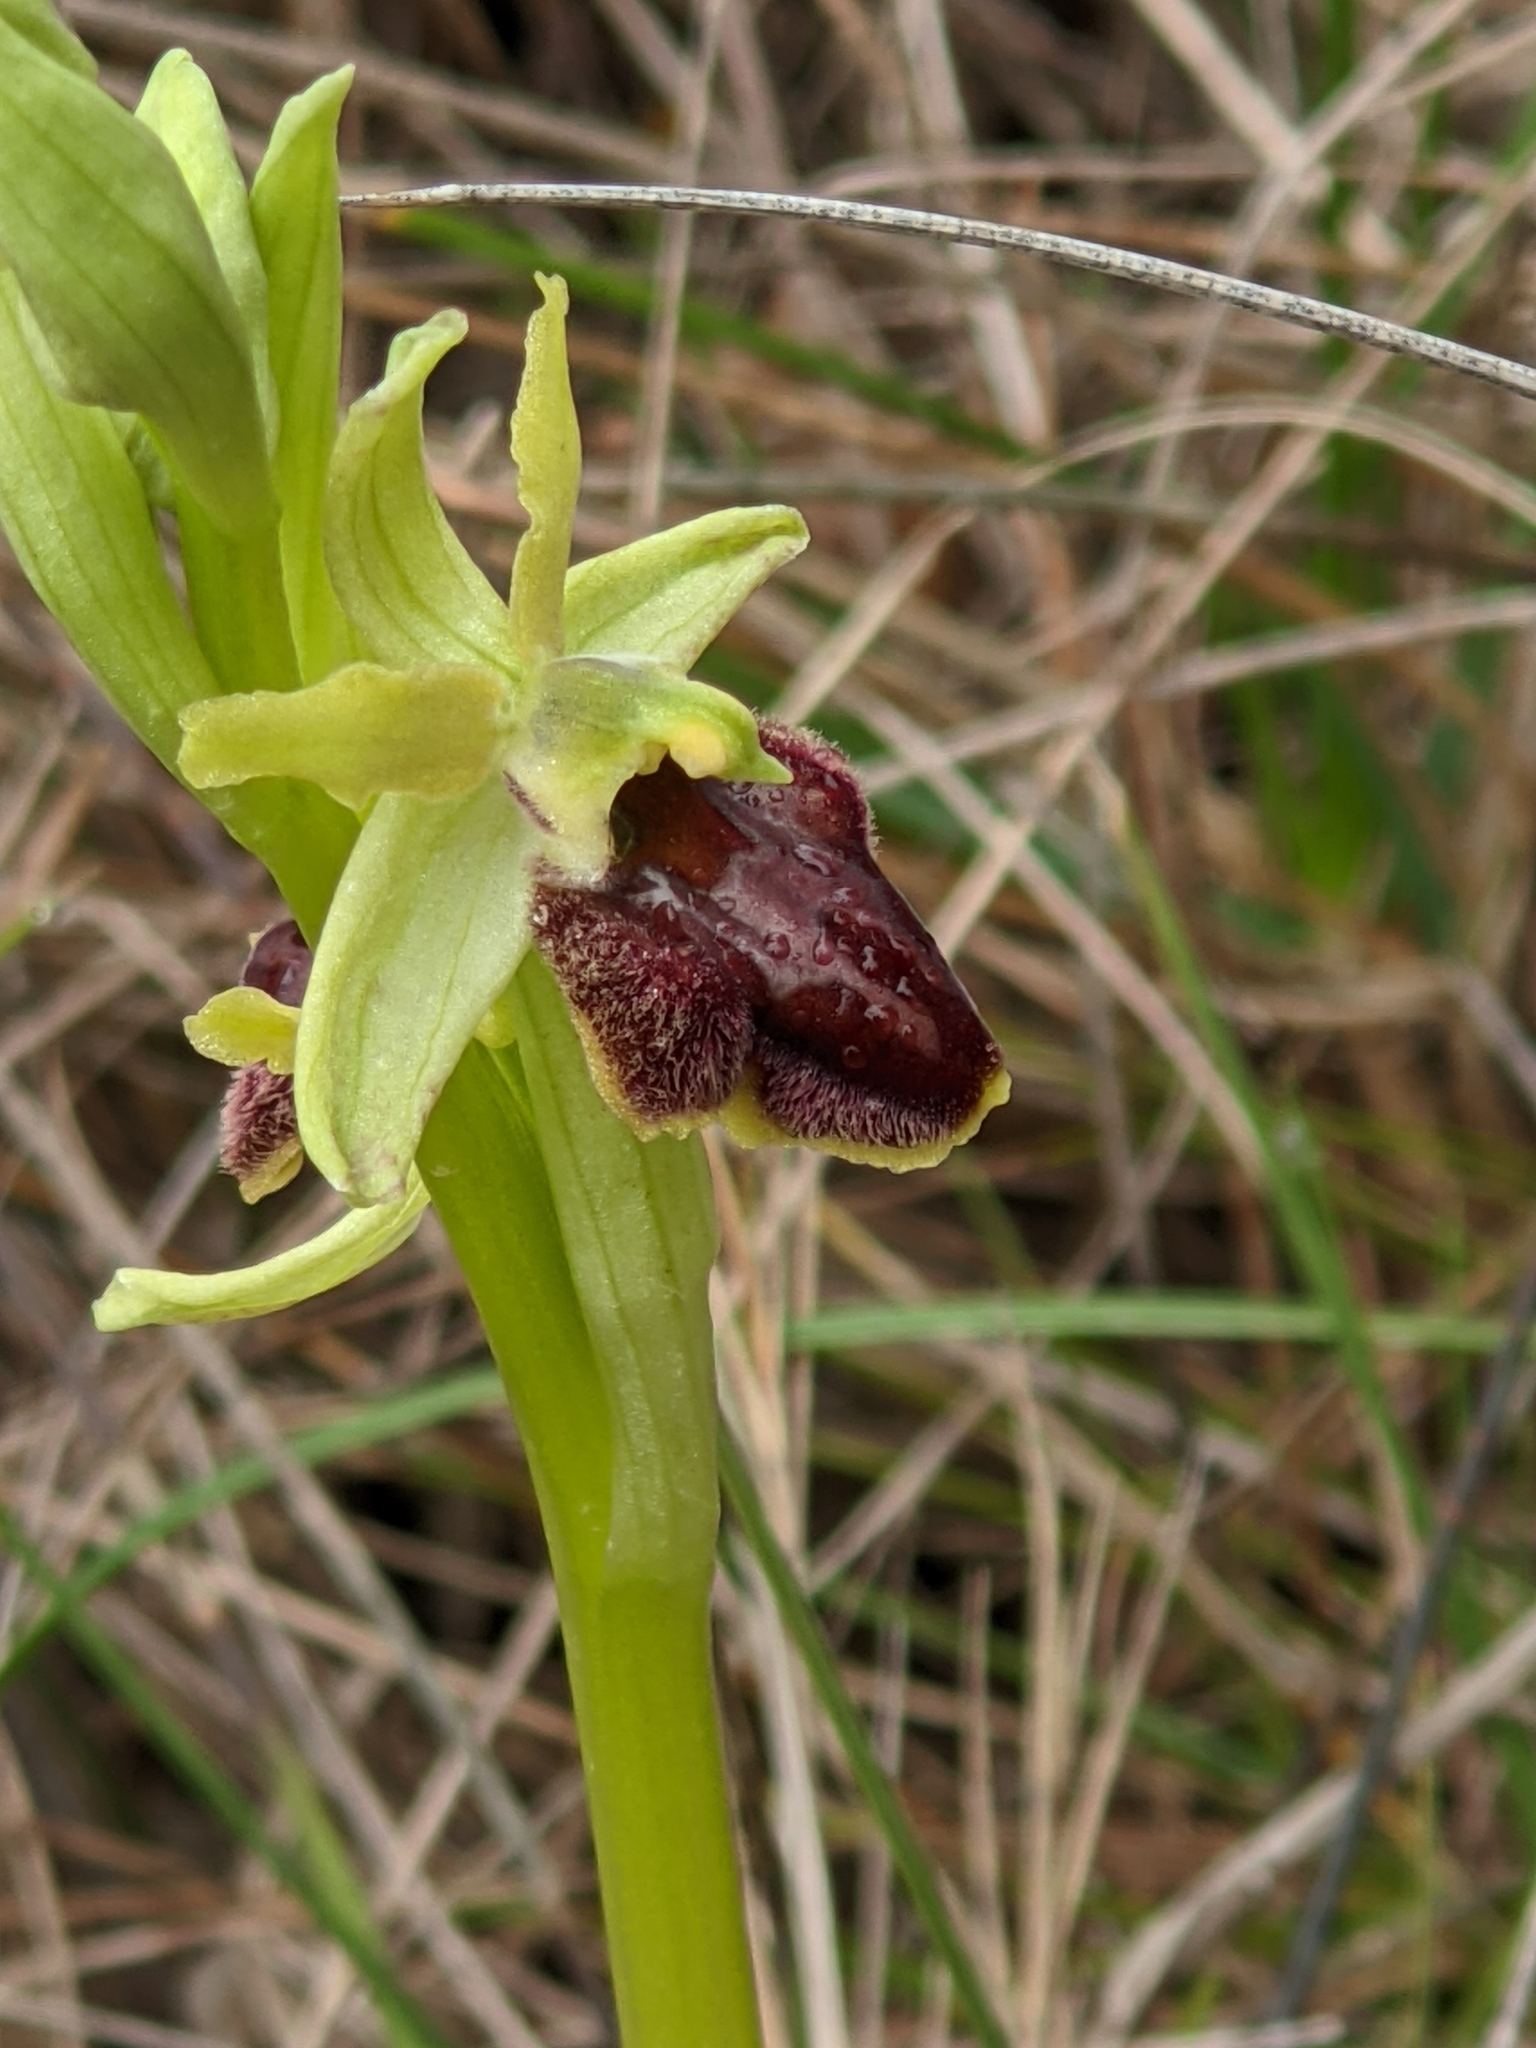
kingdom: Plantae
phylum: Tracheophyta
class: Liliopsida
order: Asparagales
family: Orchidaceae
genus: Ophrys
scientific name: Ophrys sphegodes
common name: Early spider-orchid
